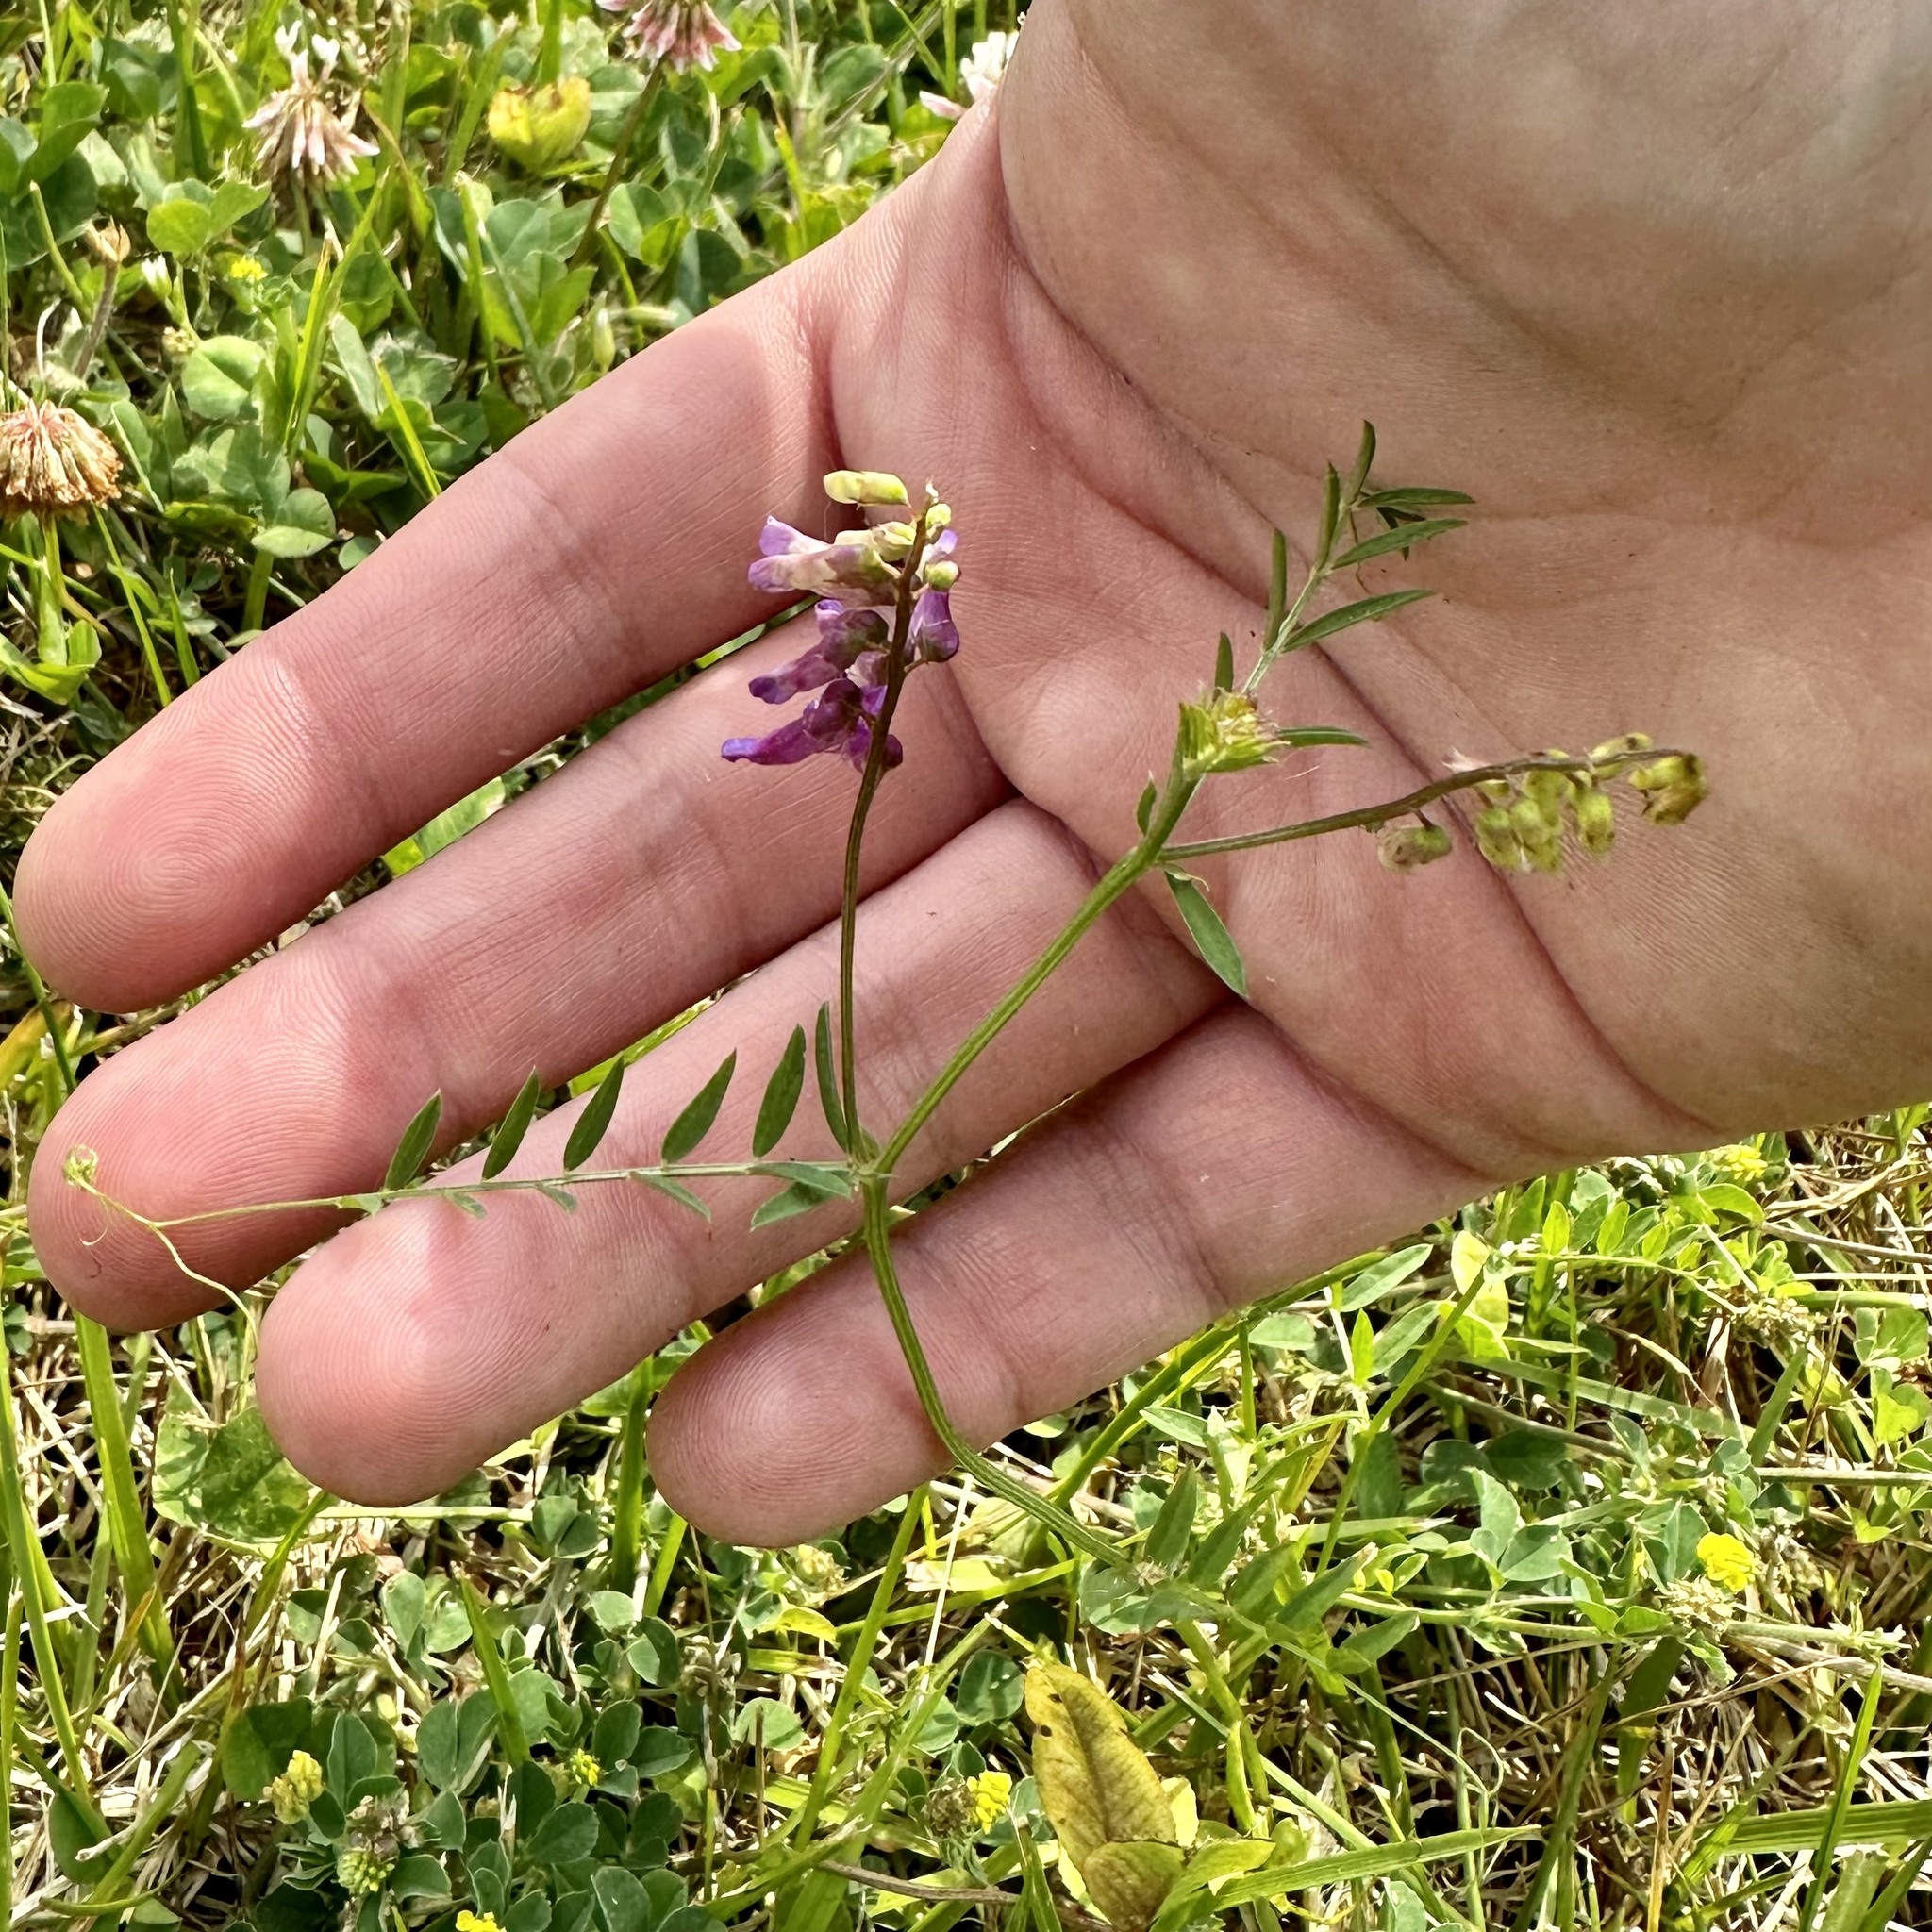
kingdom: Plantae
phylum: Tracheophyta
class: Magnoliopsida
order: Fabales
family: Fabaceae
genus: Vicia
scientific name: Vicia villosa
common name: Fodder vetch
